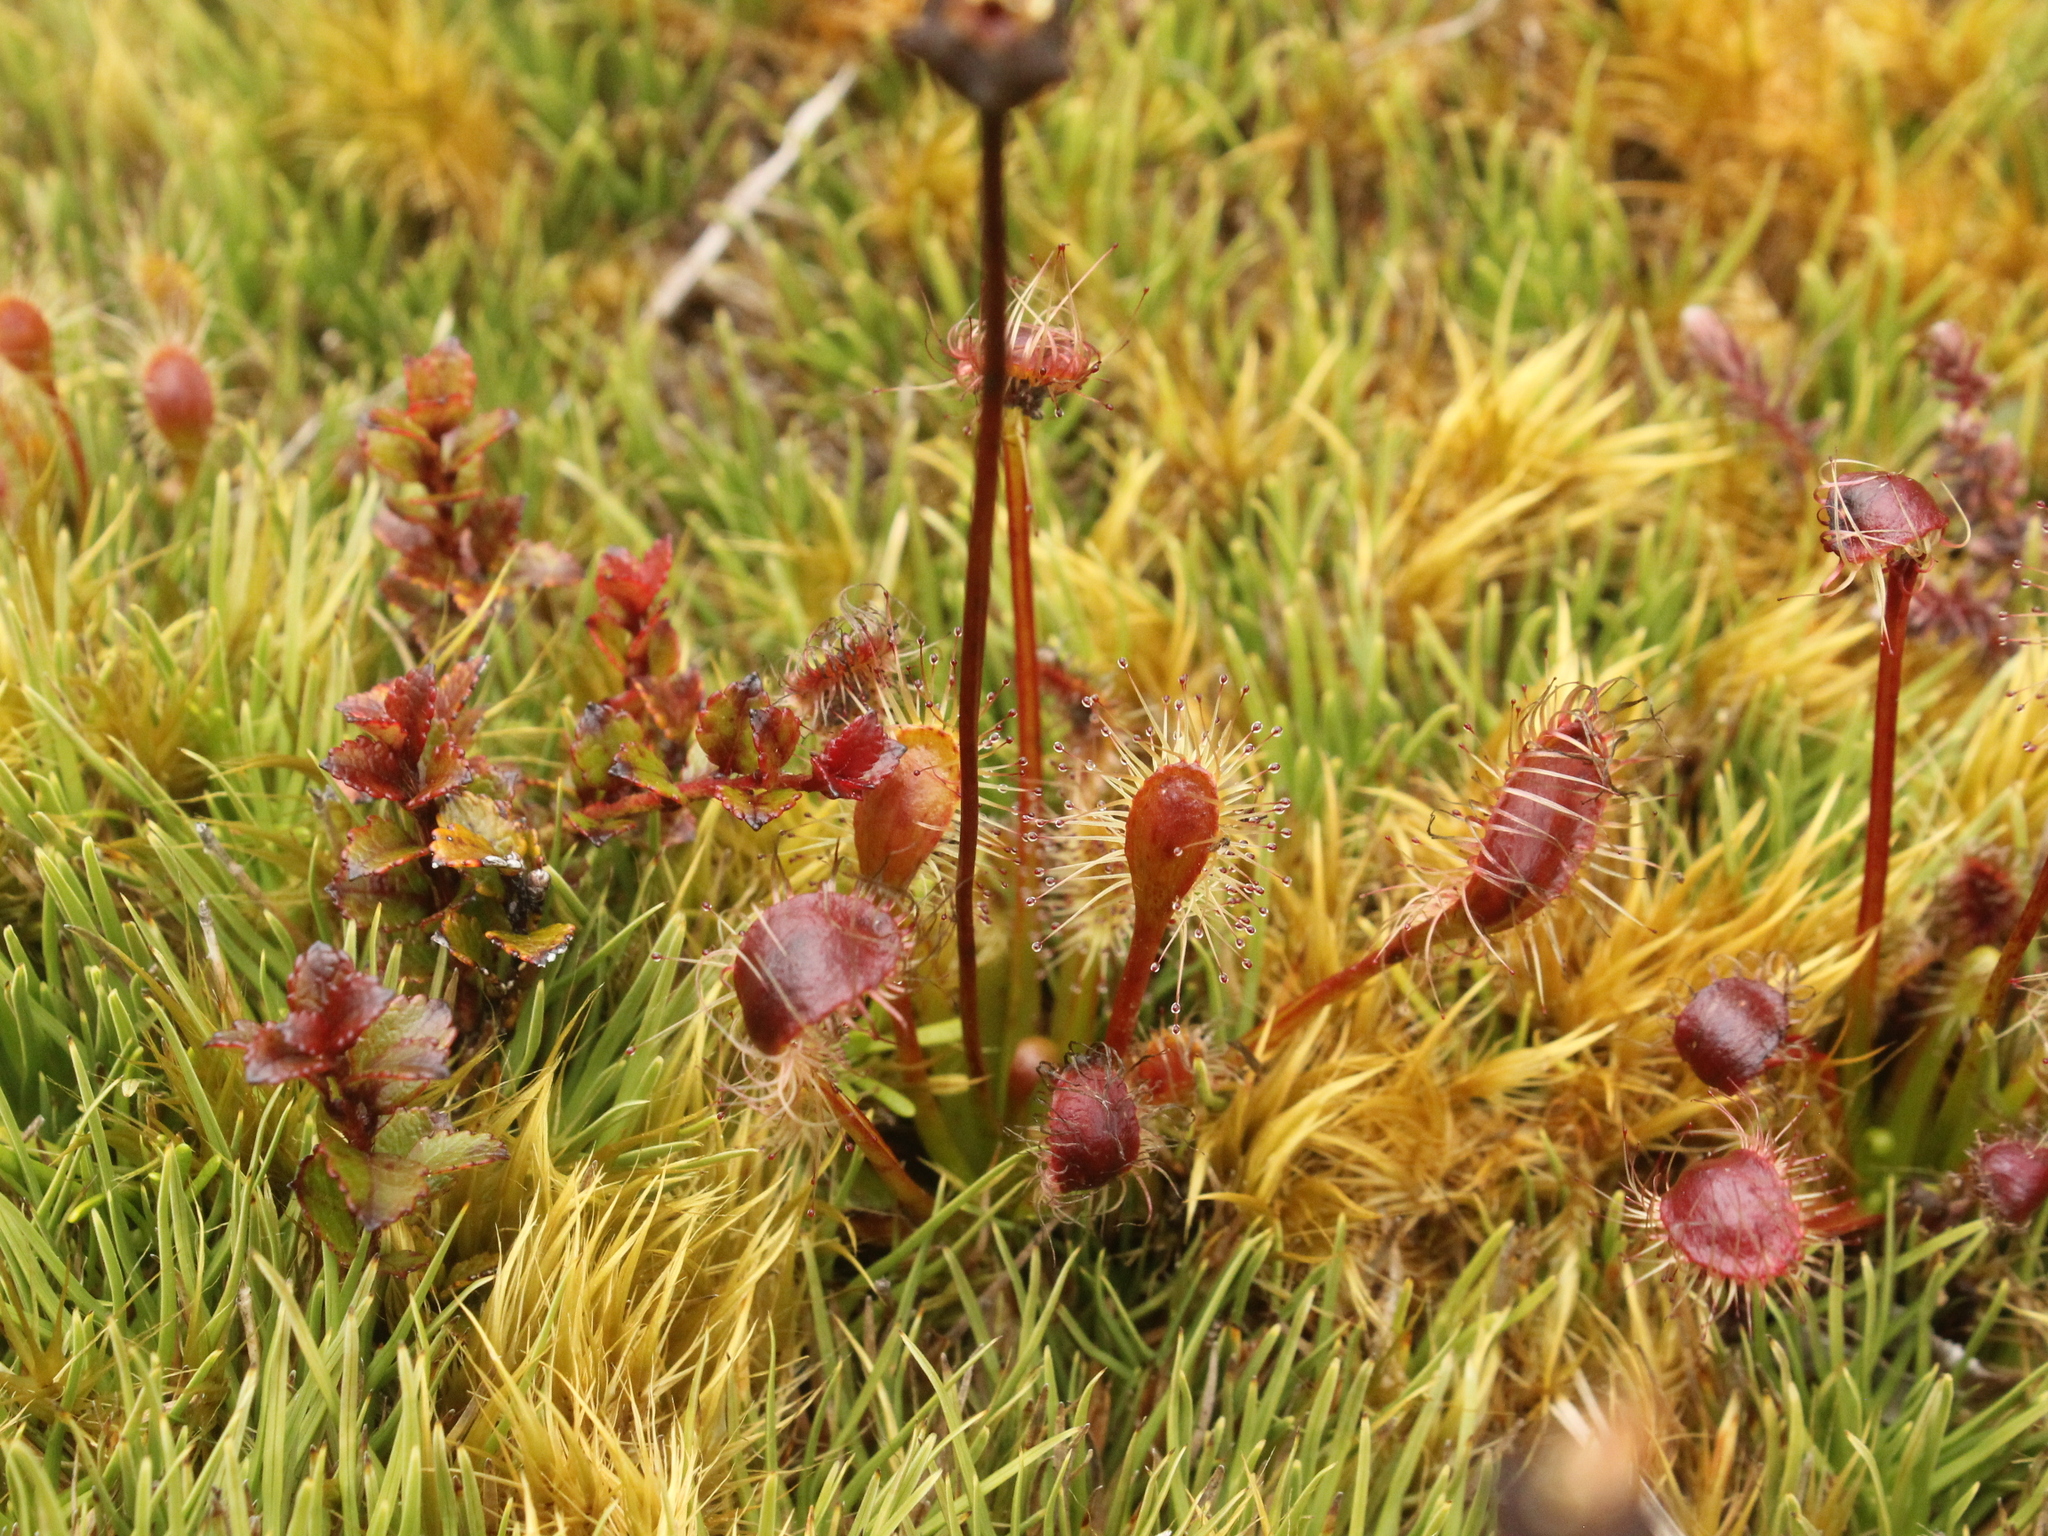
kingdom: Plantae
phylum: Tracheophyta
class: Magnoliopsida
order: Caryophyllales
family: Droseraceae
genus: Drosera
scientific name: Drosera stenopetala
